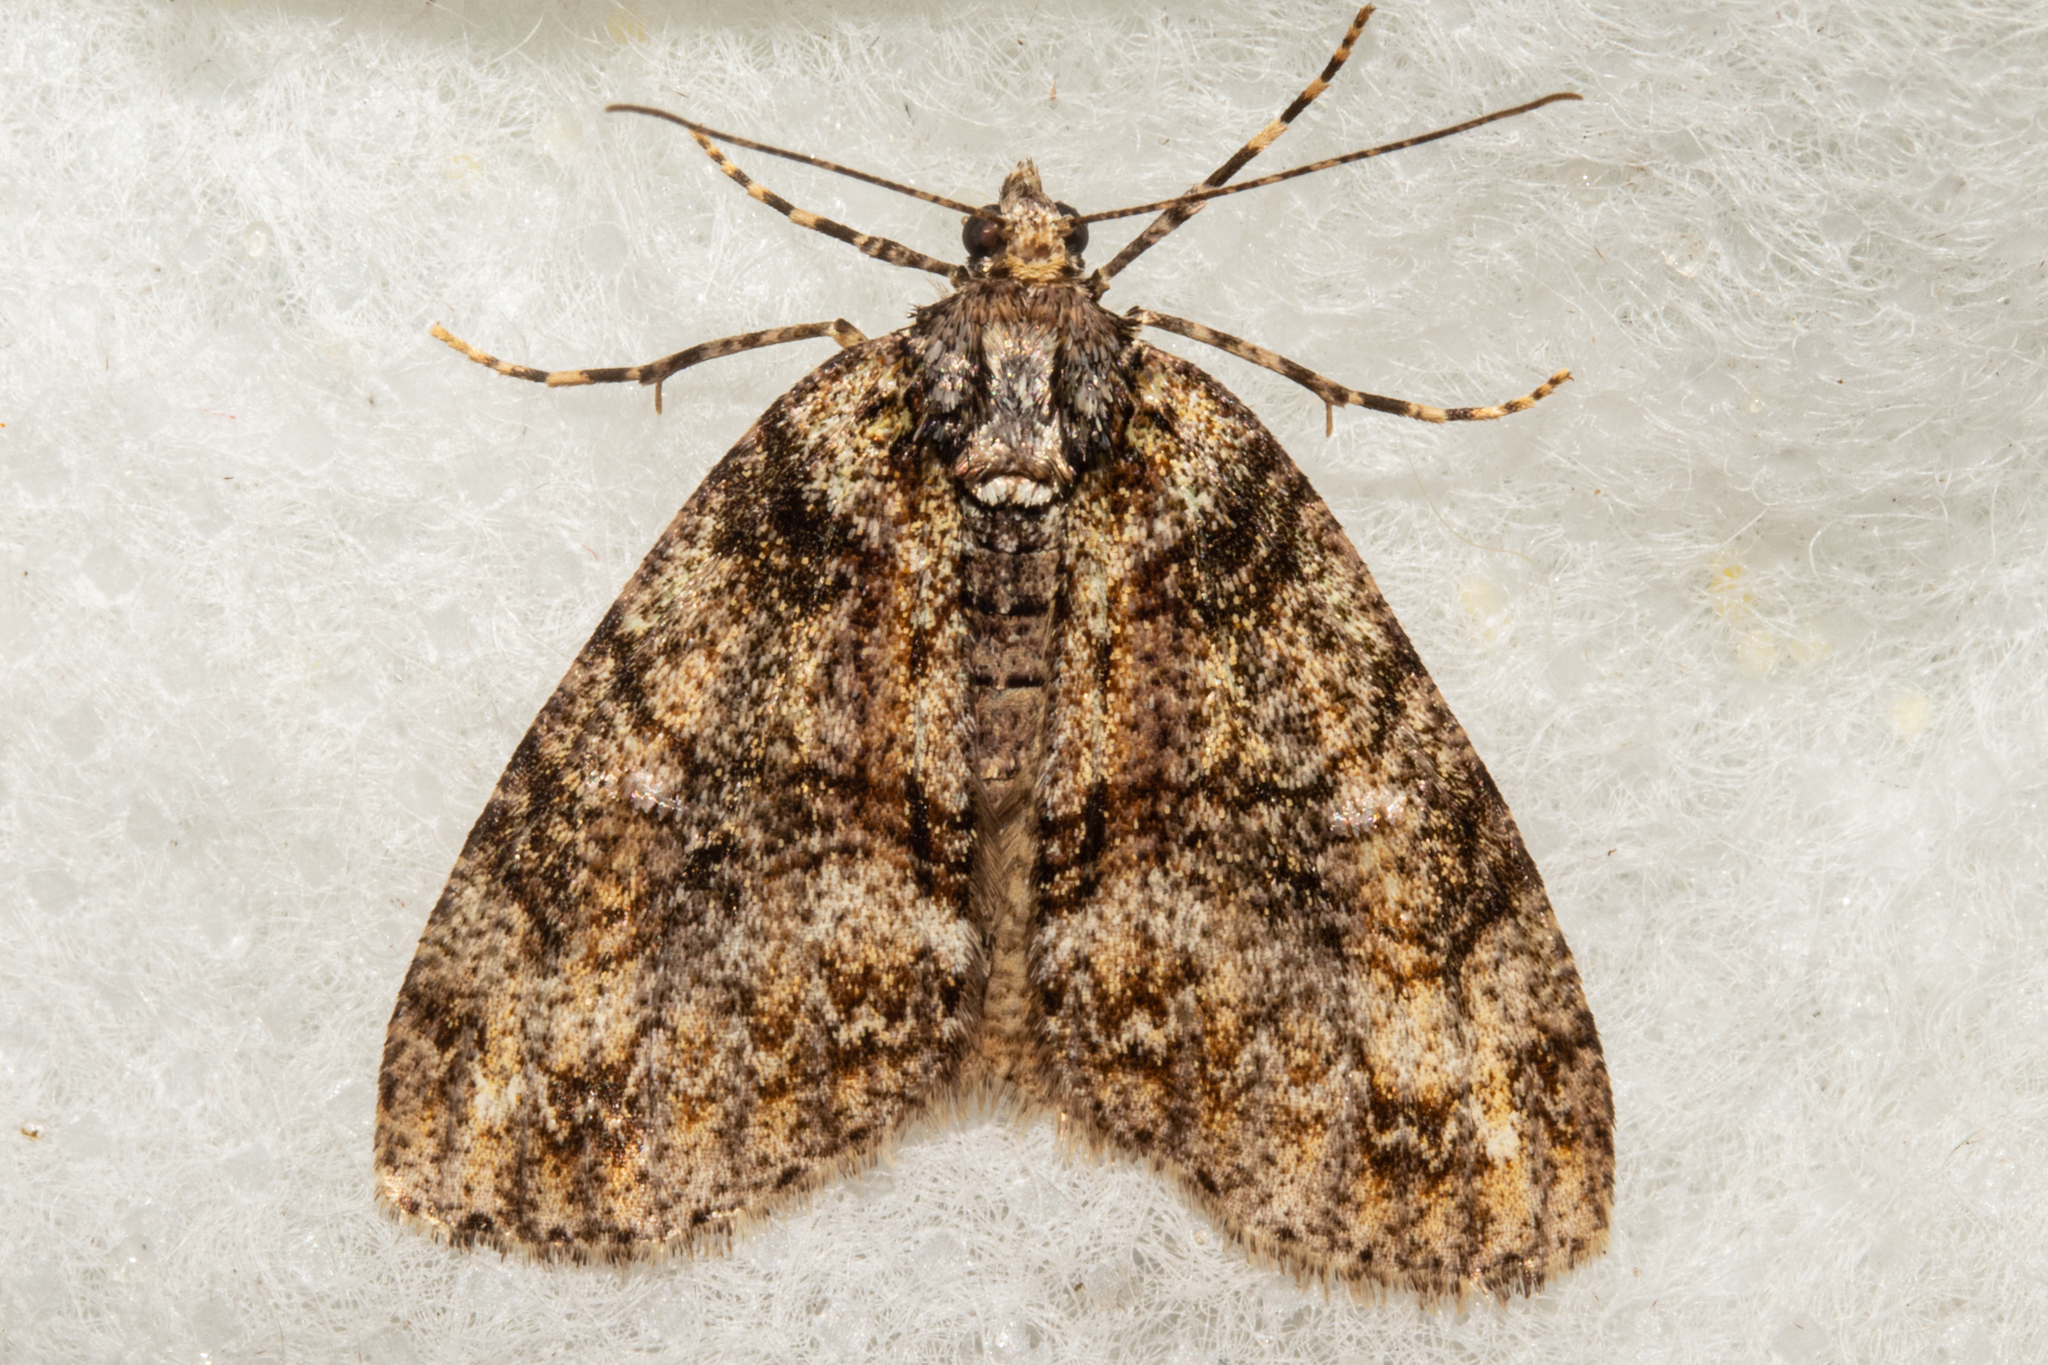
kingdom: Animalia
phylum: Arthropoda
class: Insecta
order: Lepidoptera
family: Geometridae
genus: Pseudocoremia
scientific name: Pseudocoremia suavis
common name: Common forest looper
